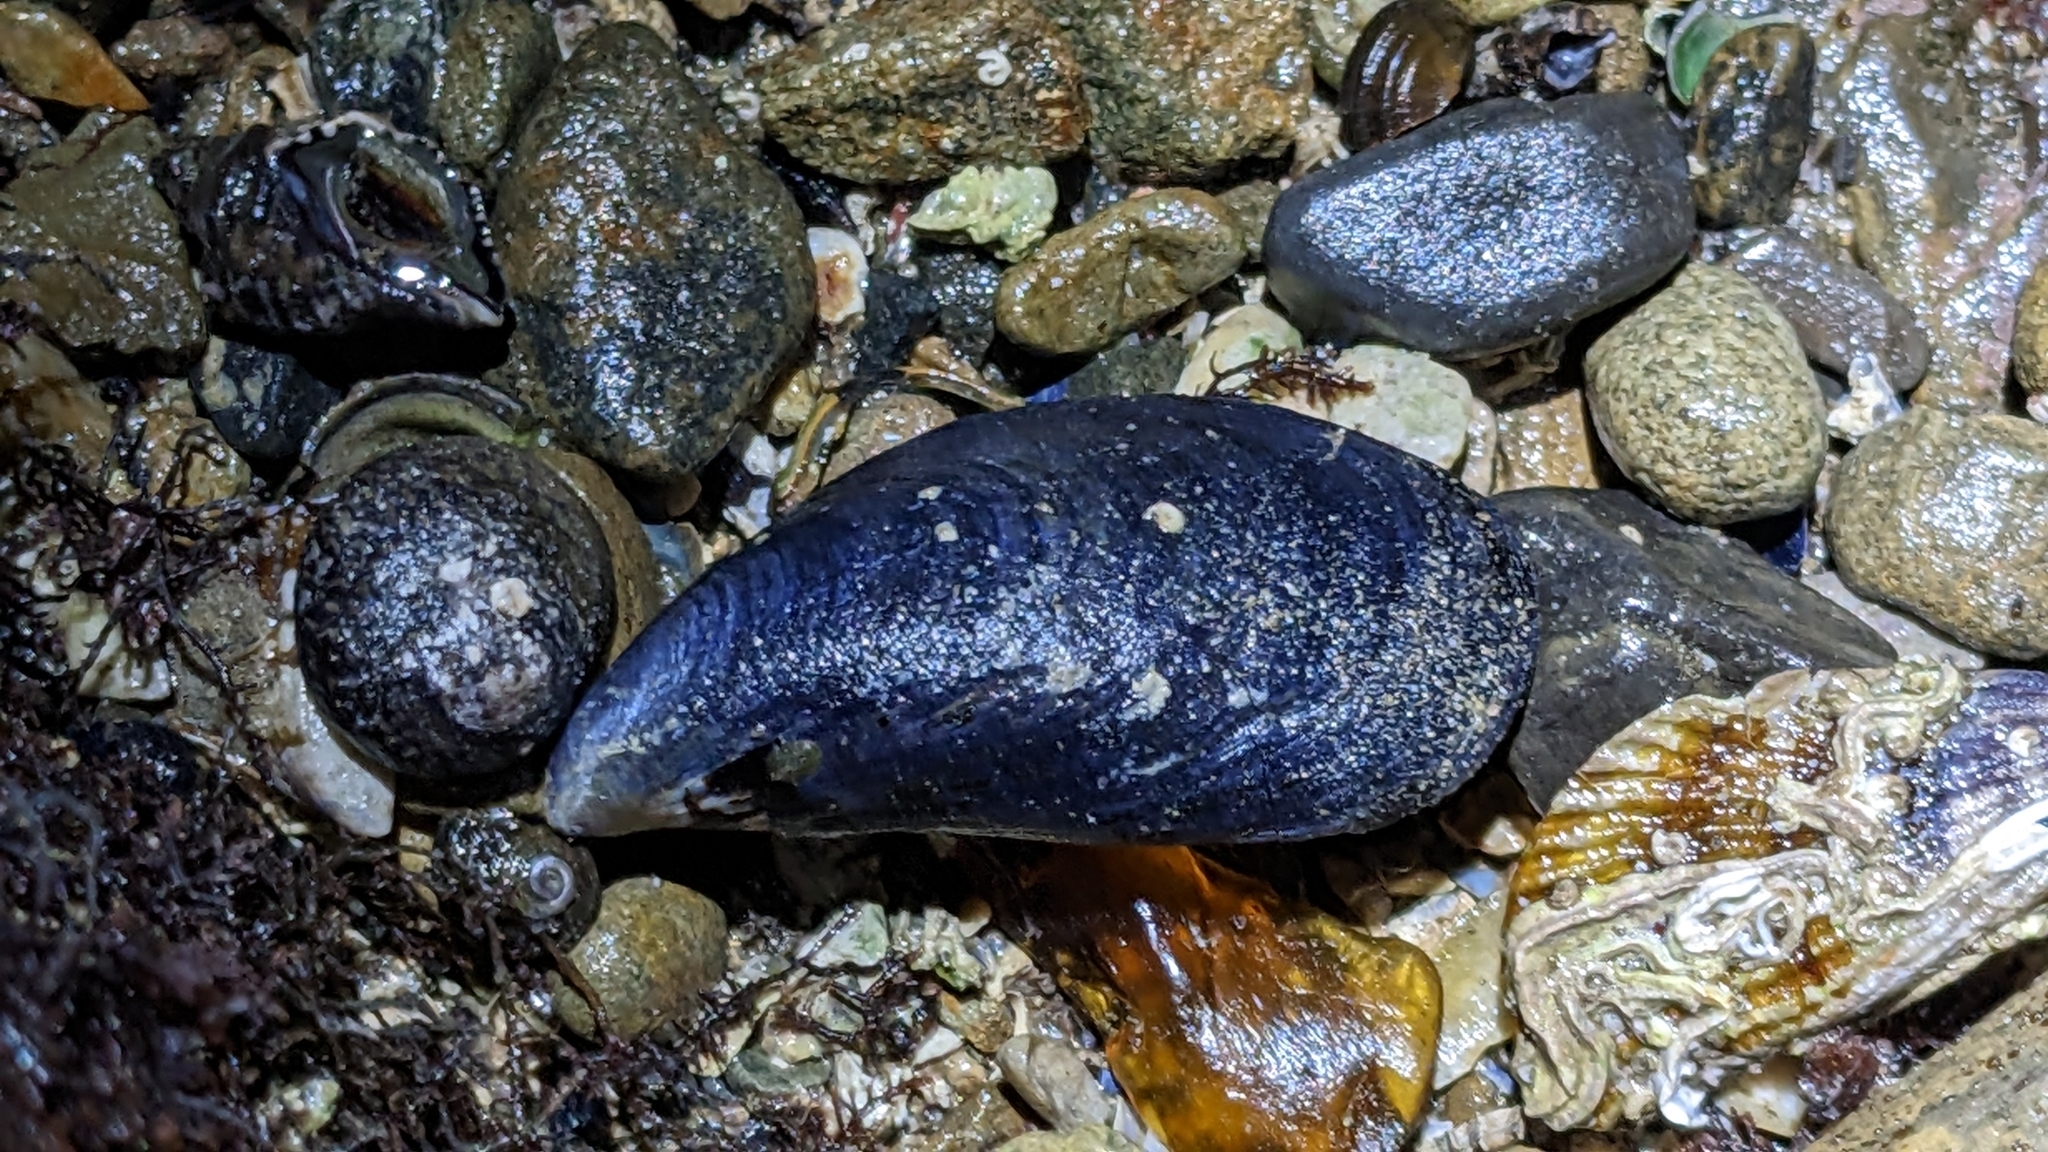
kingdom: Animalia
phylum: Mollusca
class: Bivalvia
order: Mytilida
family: Mytilidae
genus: Mytilus
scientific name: Mytilus planulatus
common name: Australian mussel
